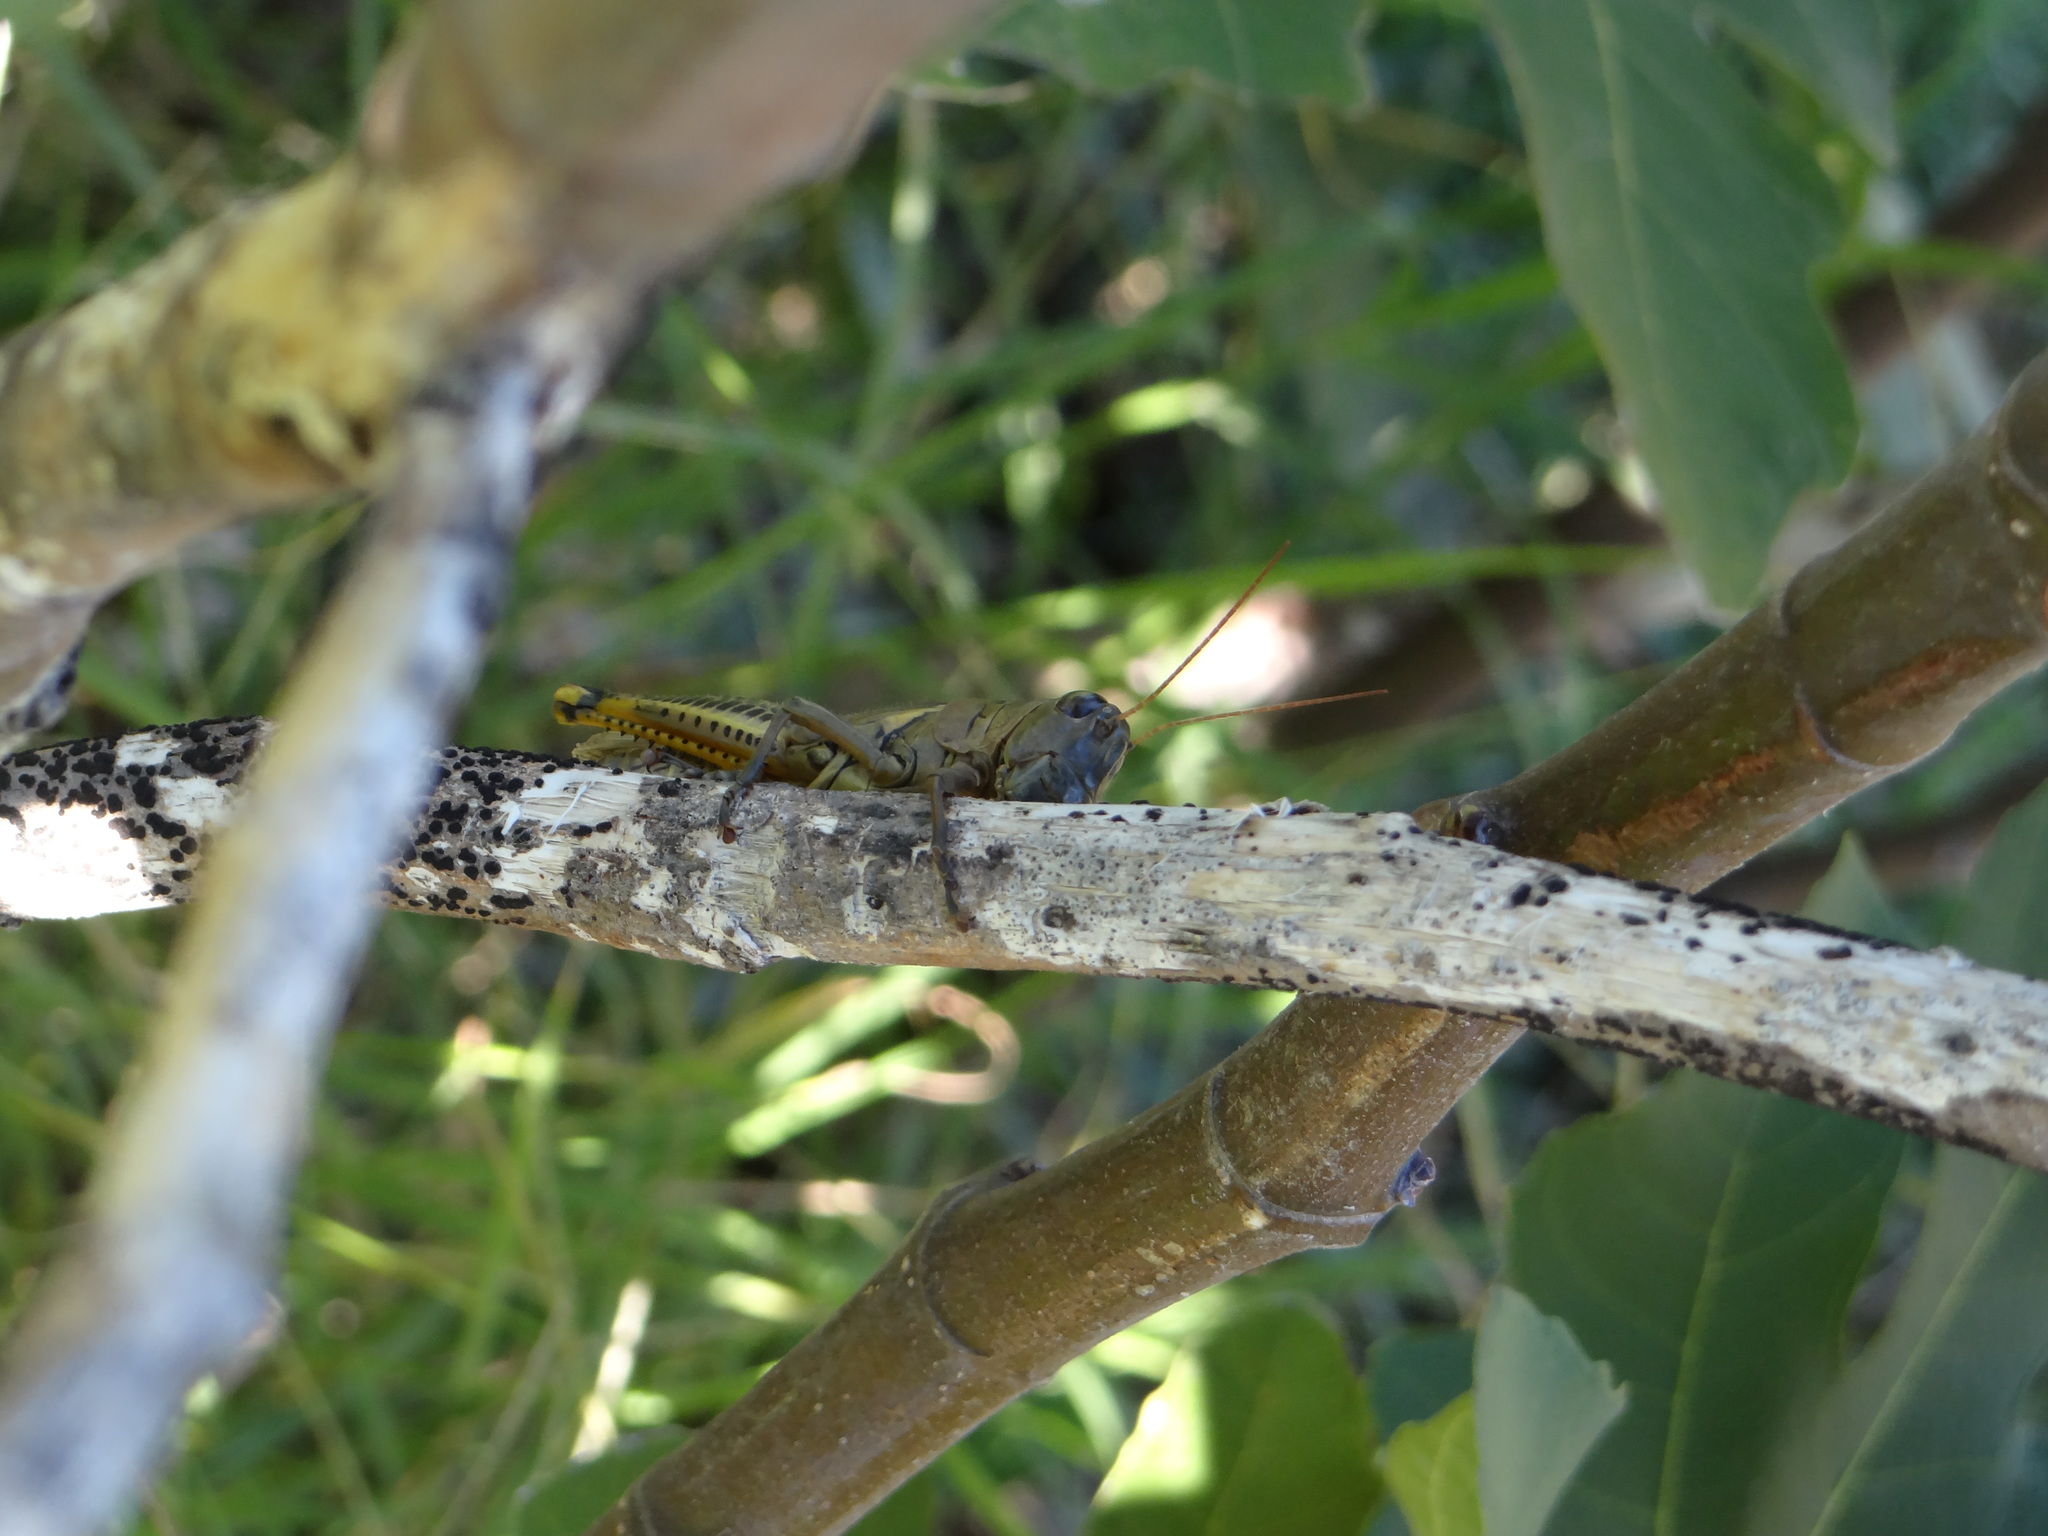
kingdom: Animalia
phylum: Arthropoda
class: Insecta
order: Orthoptera
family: Acrididae
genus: Melanoplus
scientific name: Melanoplus differentialis
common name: Differential grasshopper
